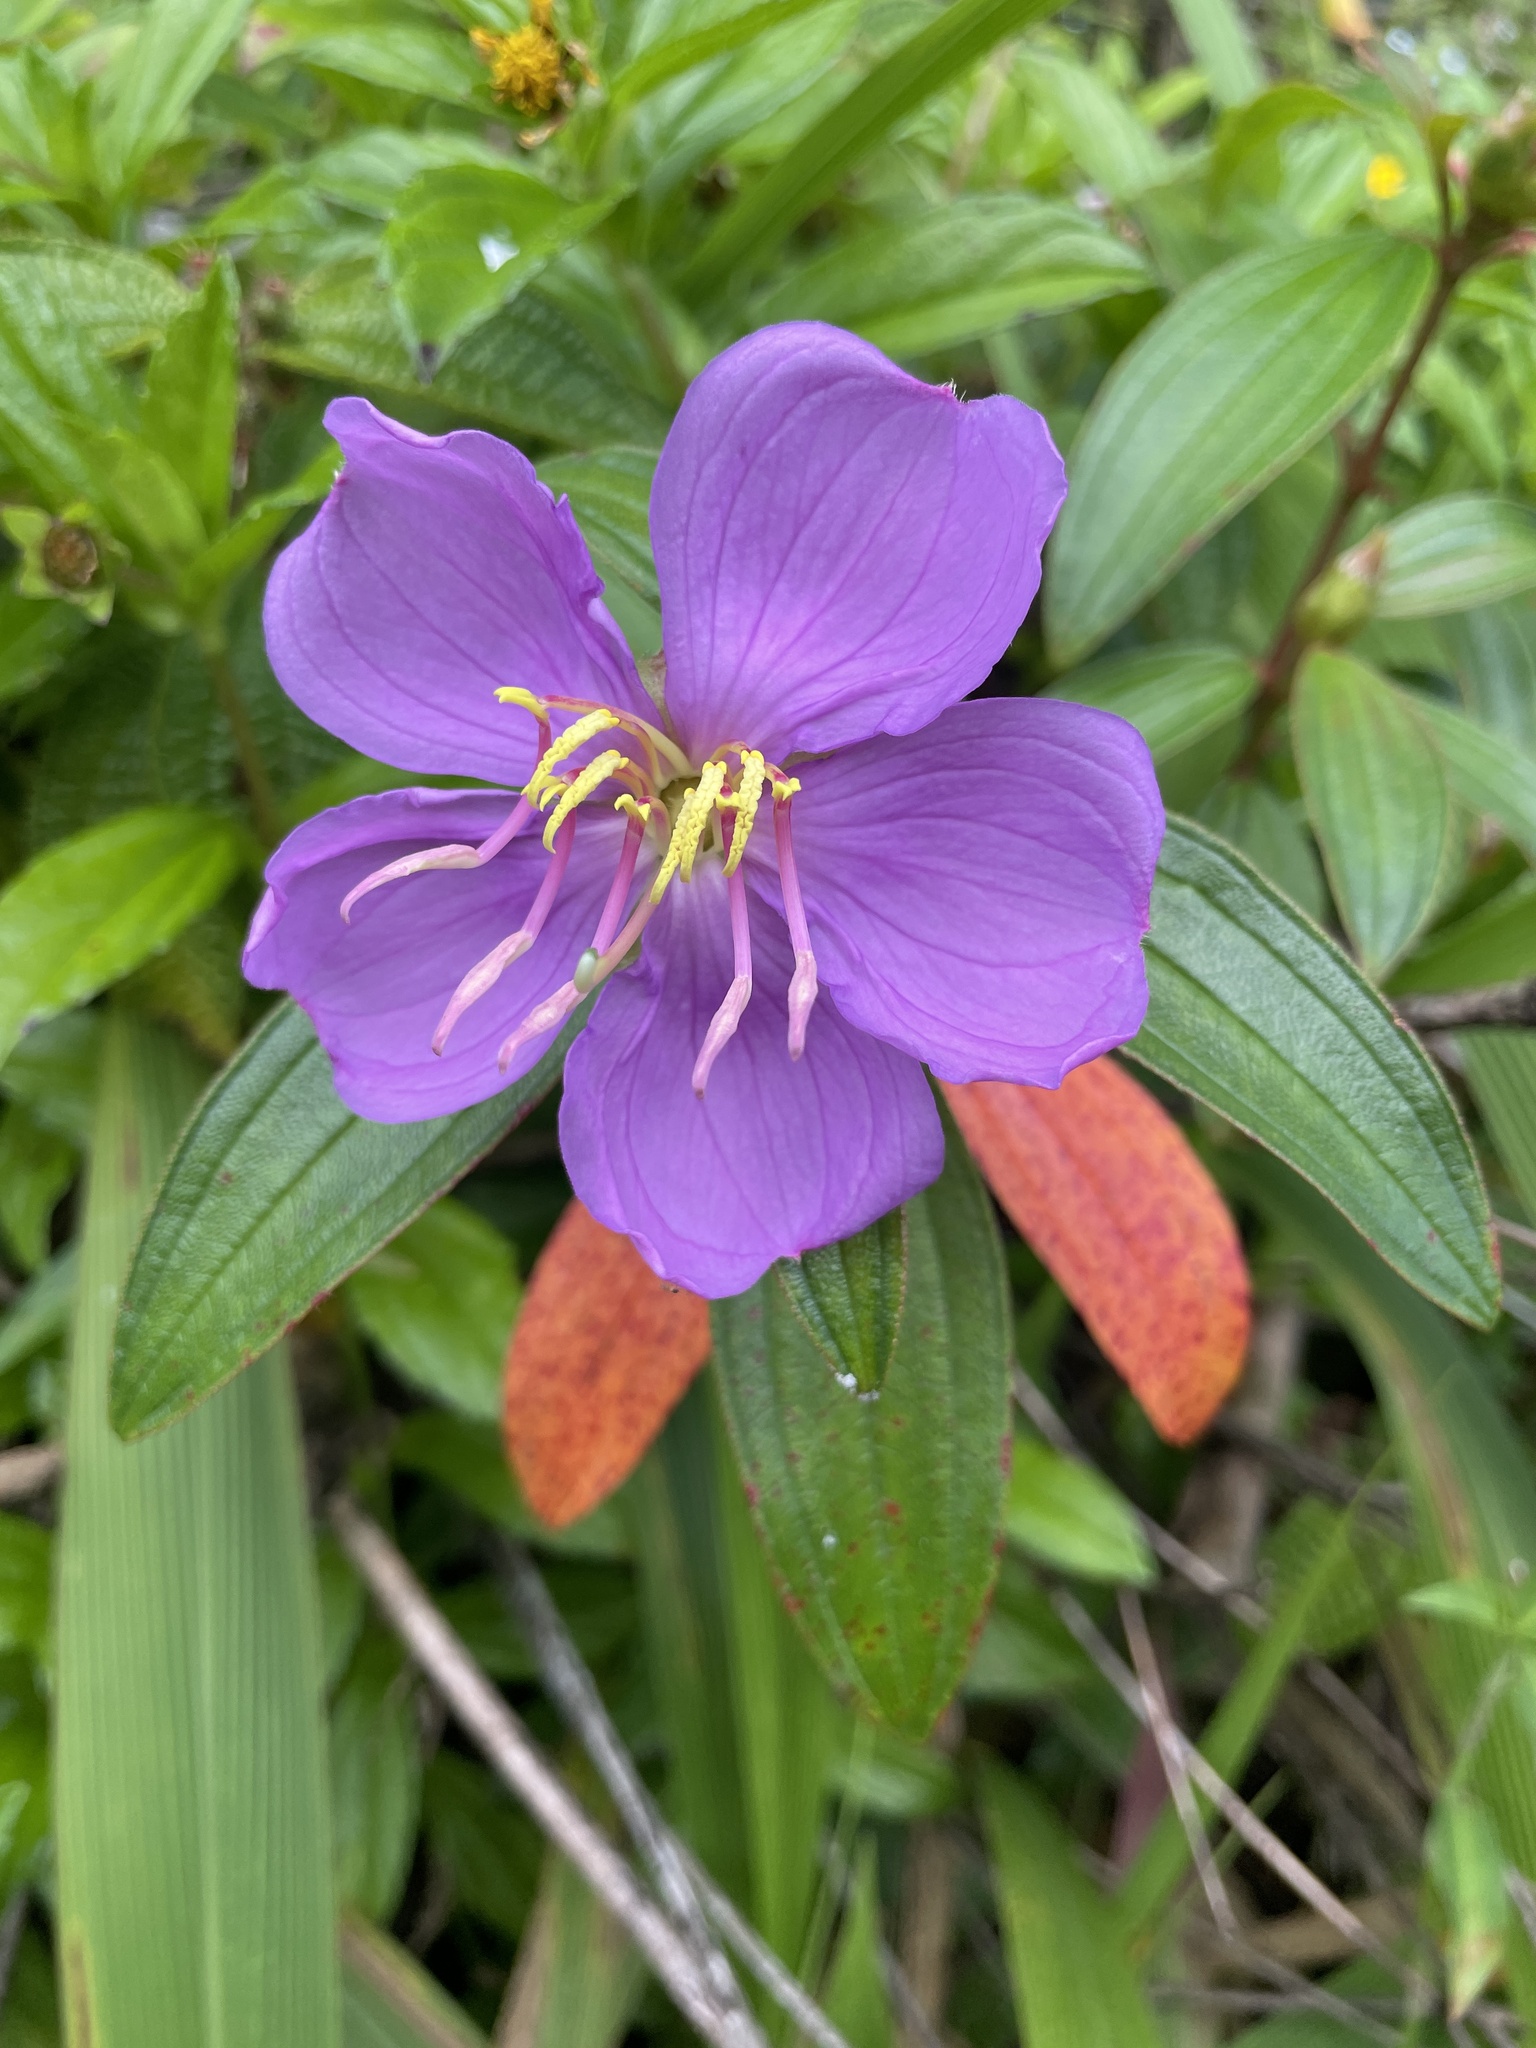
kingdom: Plantae
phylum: Tracheophyta
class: Magnoliopsida
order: Myrtales
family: Melastomataceae
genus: Melastoma
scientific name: Melastoma malabathricum
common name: Indian-rhododendron
